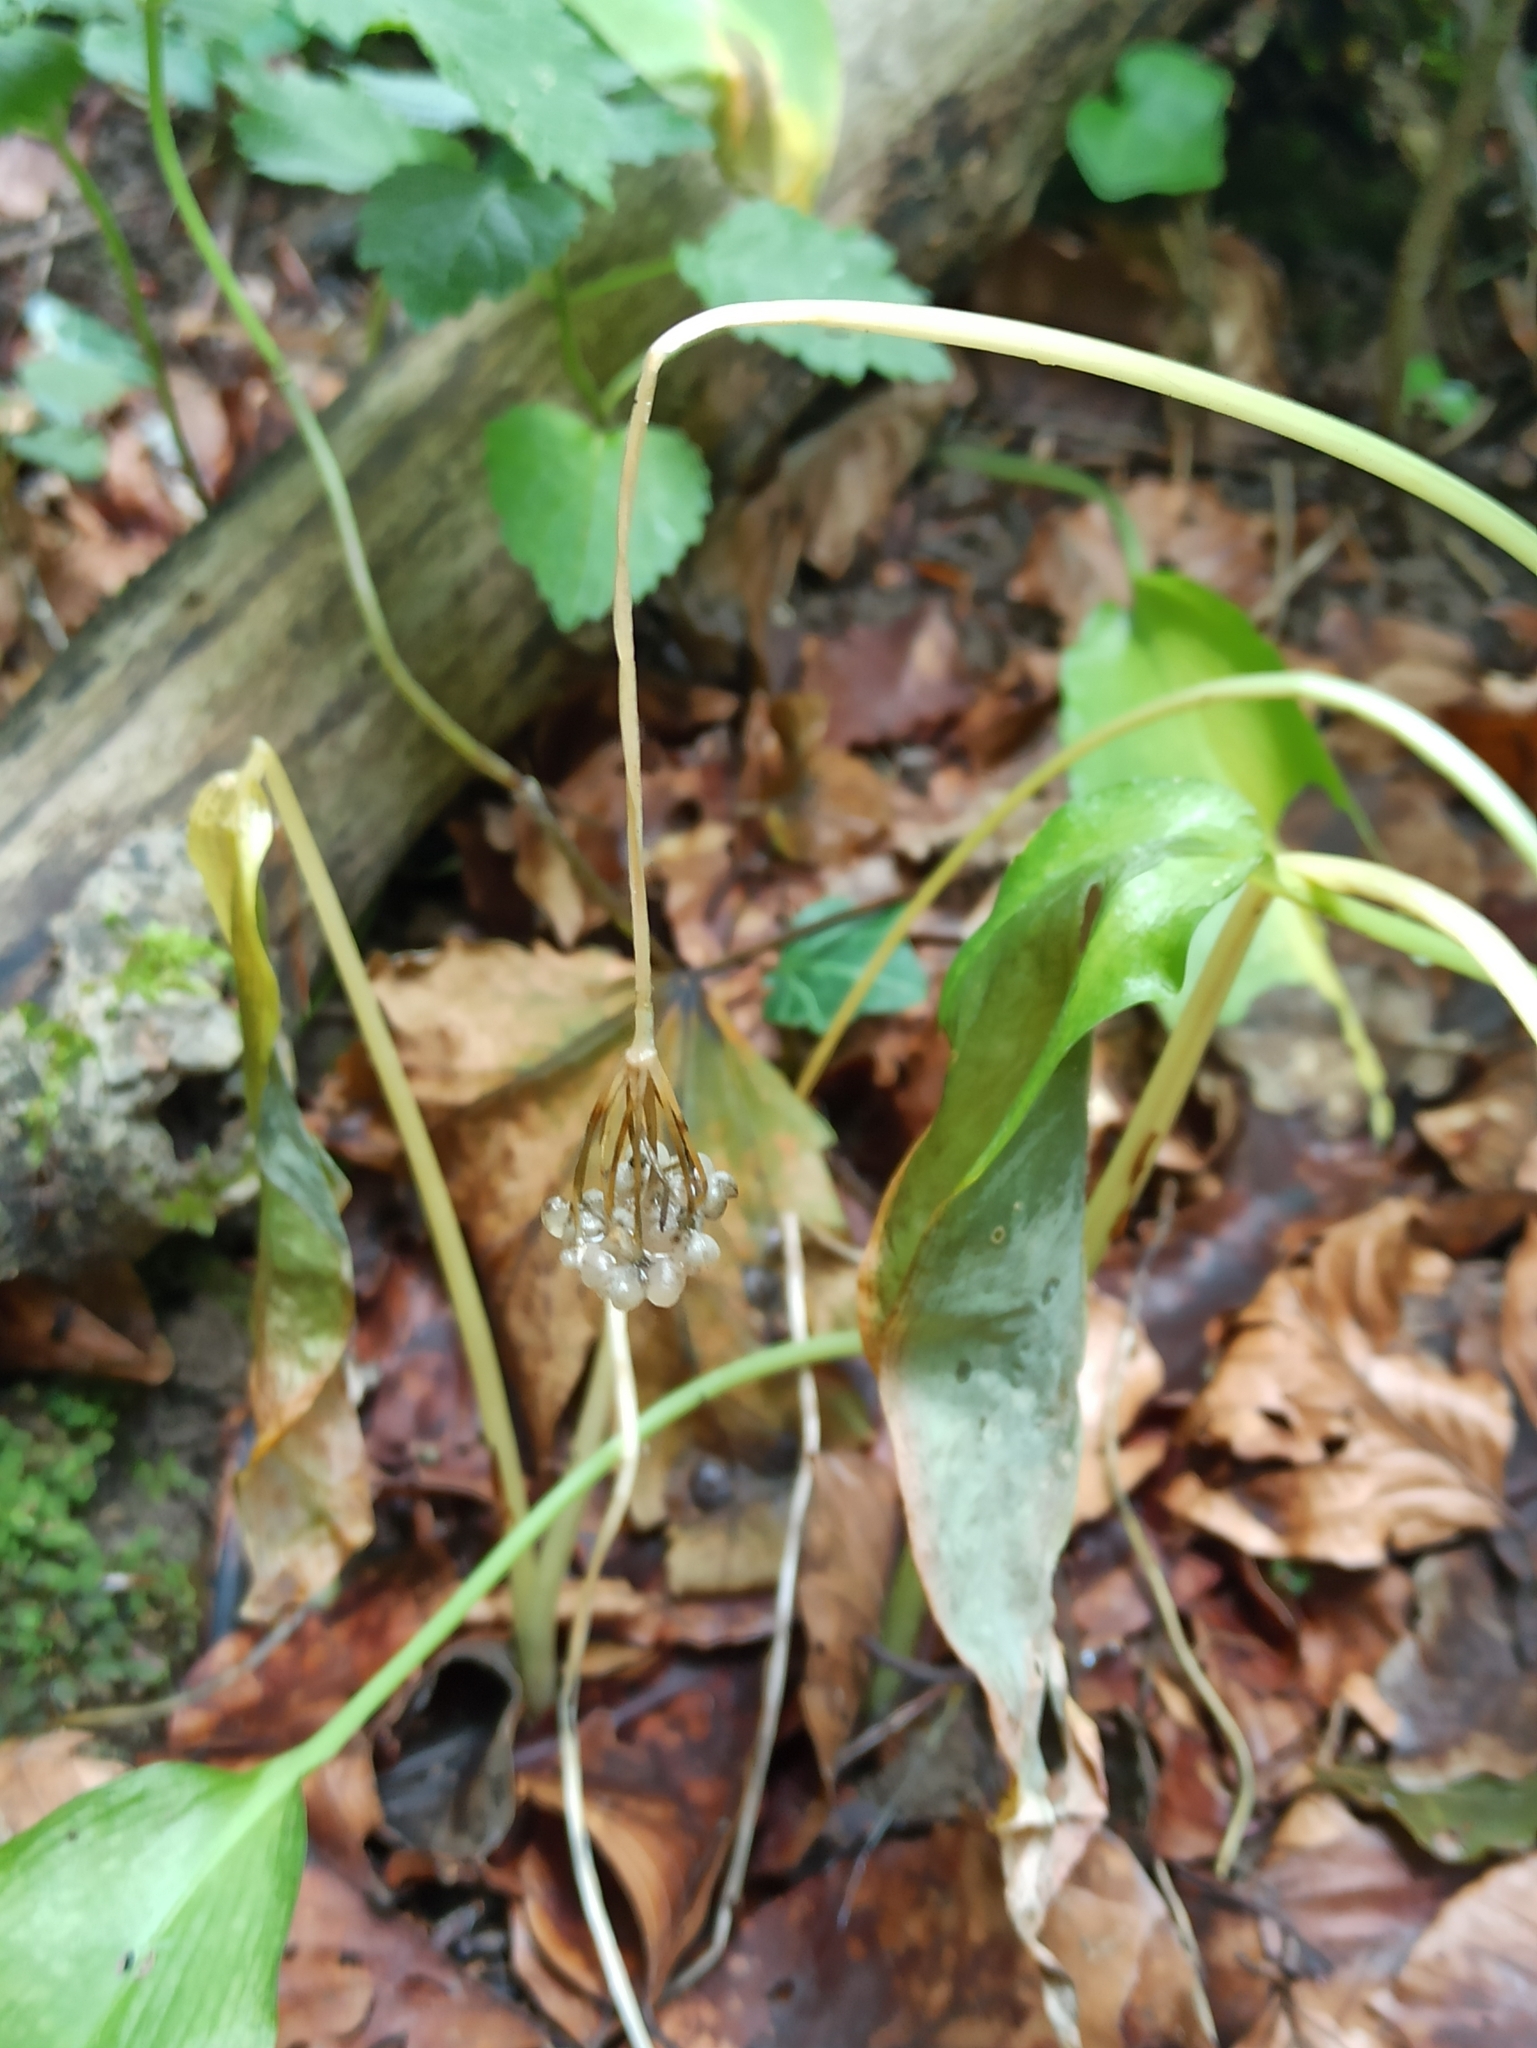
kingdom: Plantae
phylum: Tracheophyta
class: Liliopsida
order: Asparagales
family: Amaryllidaceae
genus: Allium
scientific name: Allium ursinum
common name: Ramsons
